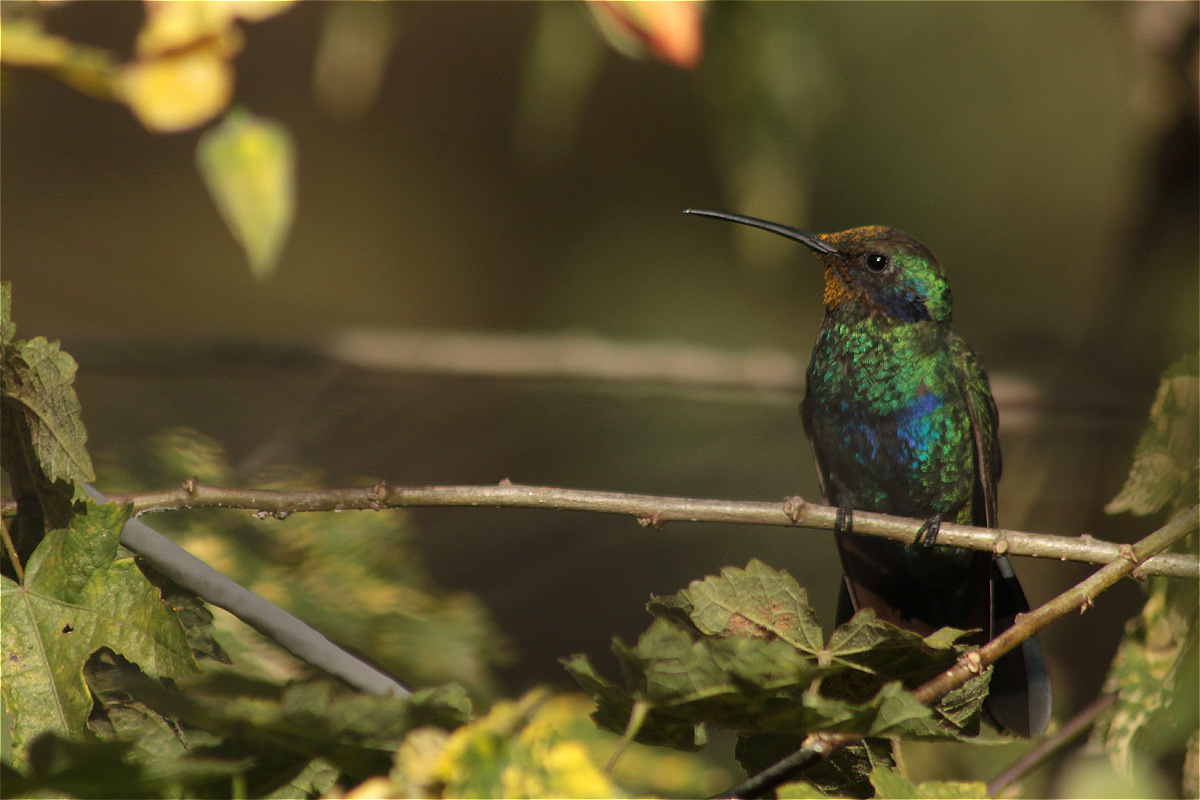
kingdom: Animalia
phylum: Chordata
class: Aves
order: Apodiformes
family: Trochilidae
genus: Colibri
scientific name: Colibri coruscans
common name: Sparkling violetear
